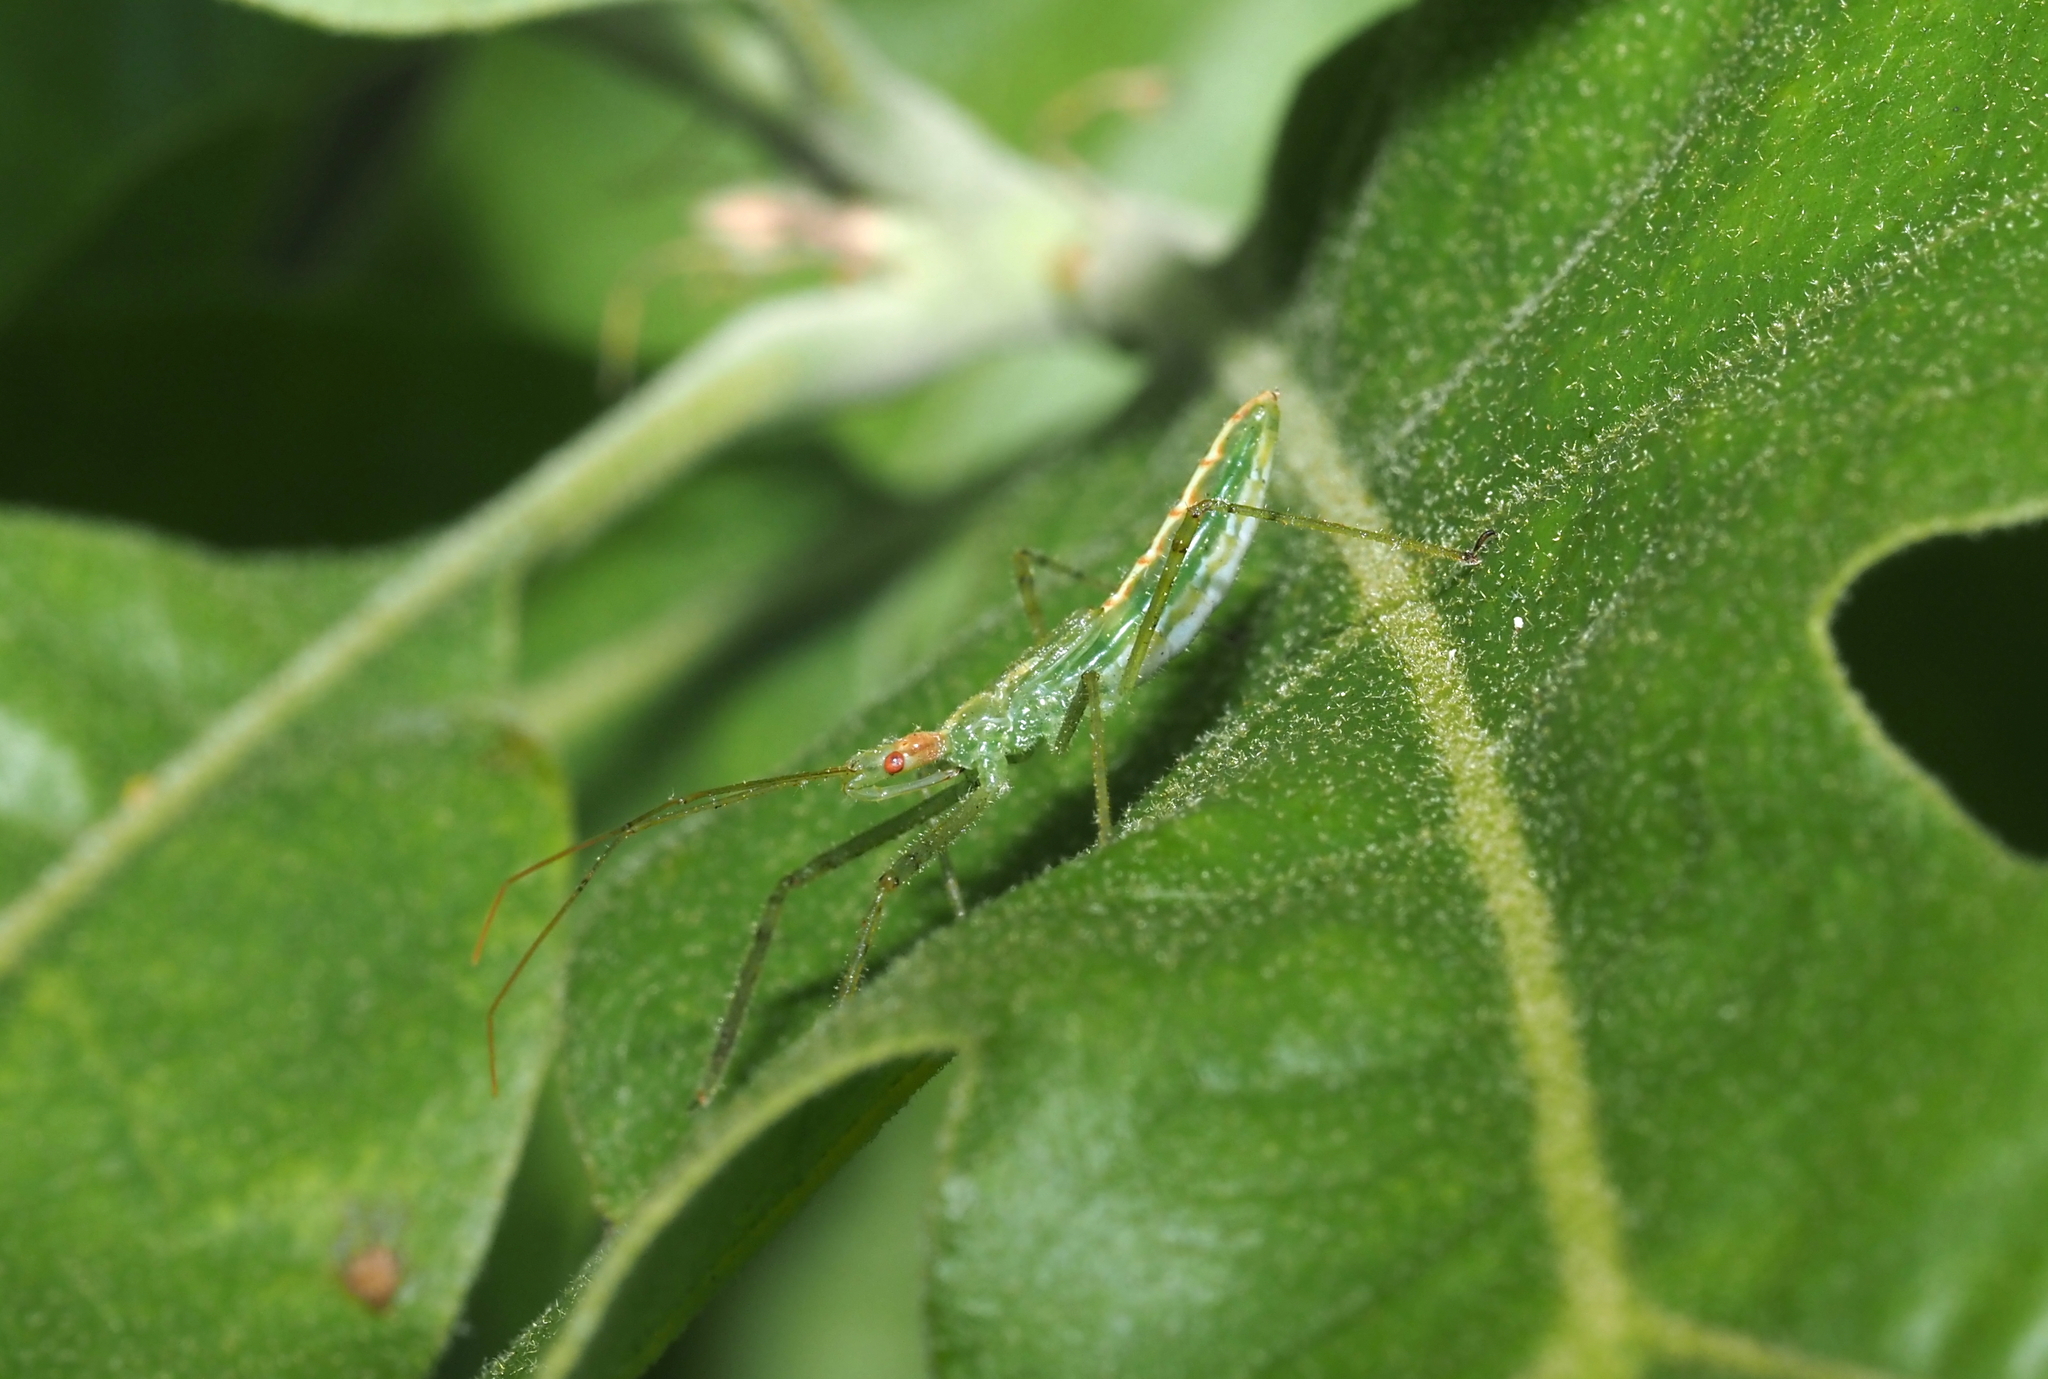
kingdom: Animalia
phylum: Arthropoda
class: Insecta
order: Hemiptera
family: Reduviidae
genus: Zelus
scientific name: Zelus luridus
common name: Pale green assassin bug
